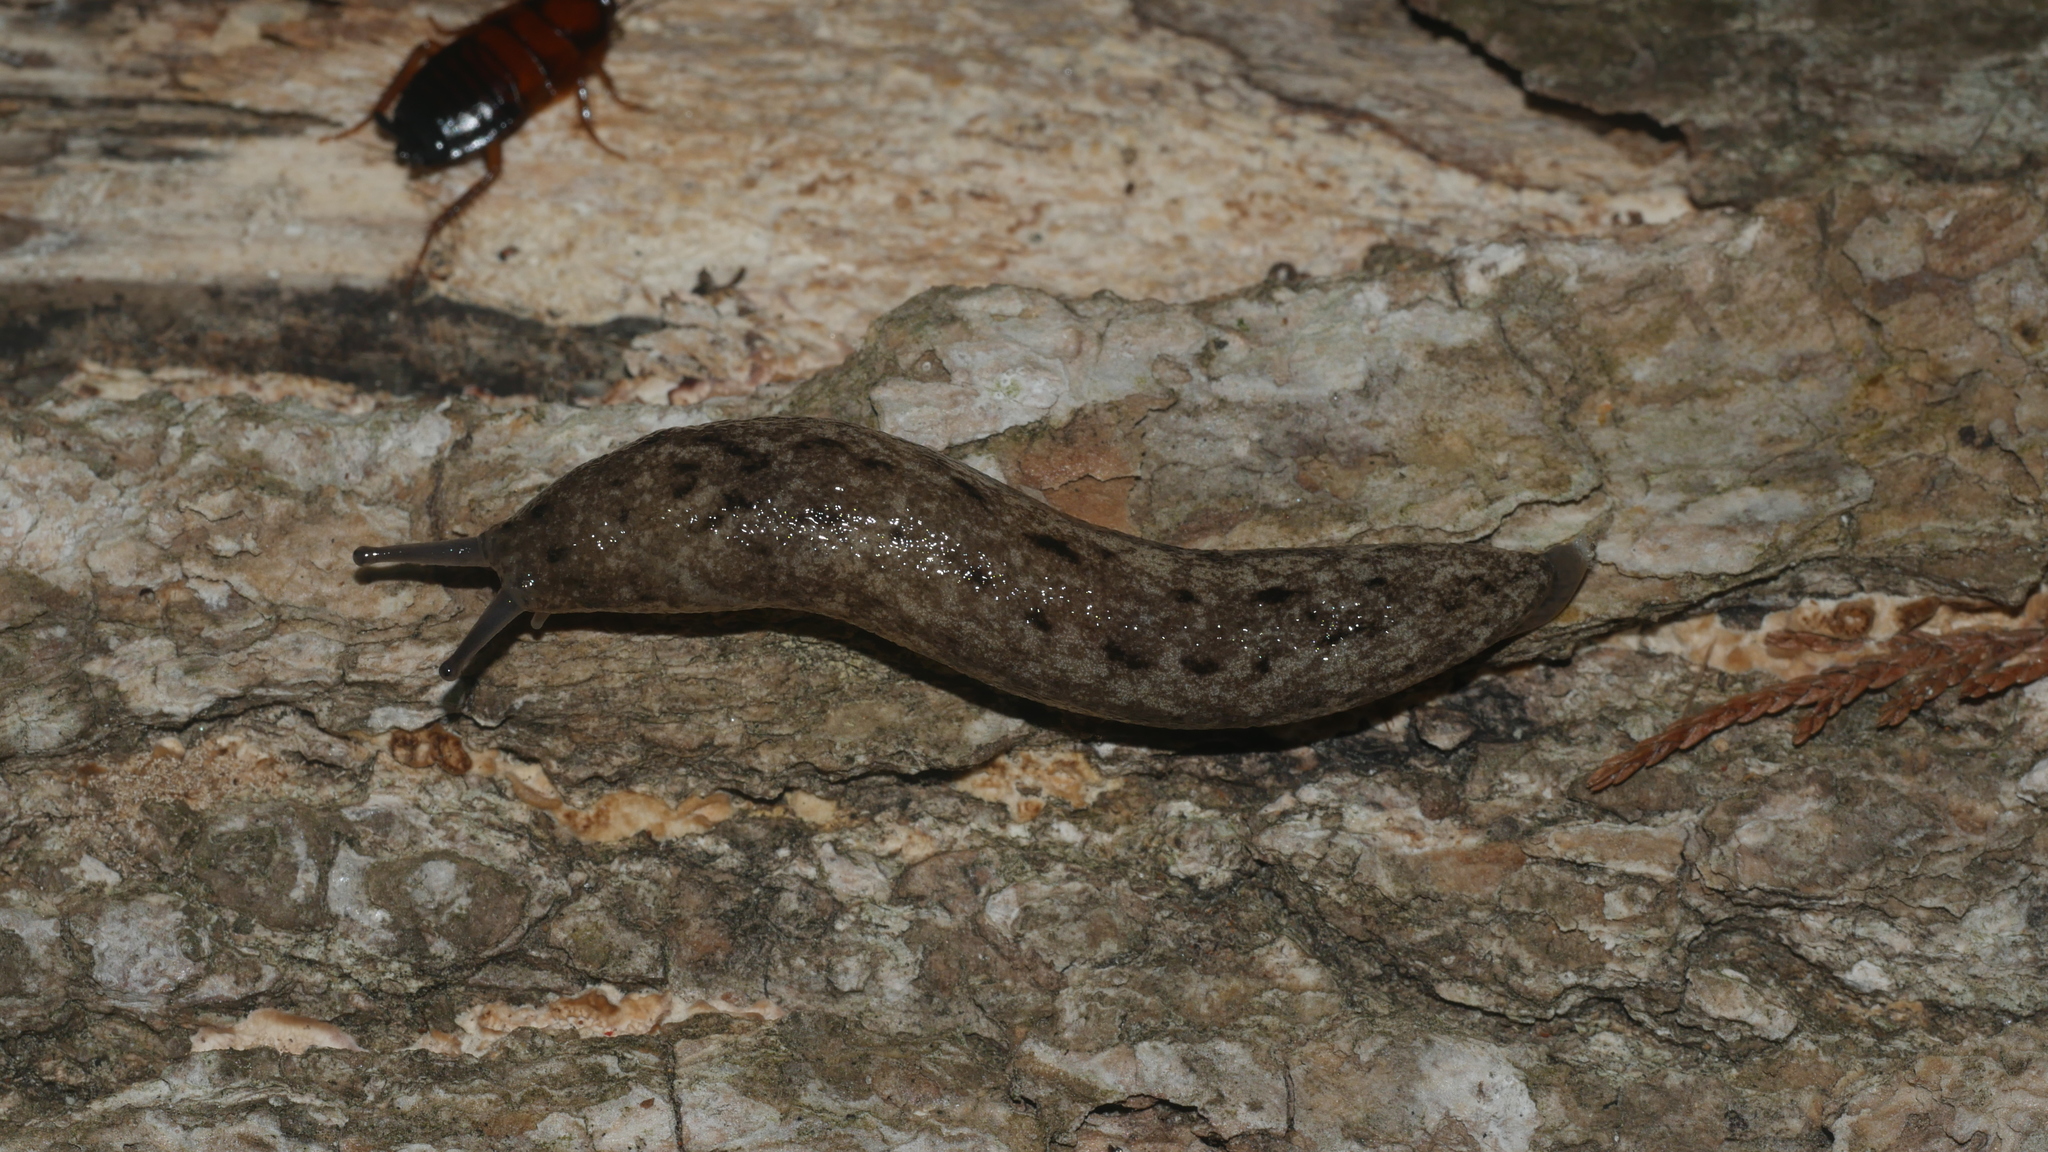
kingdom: Animalia
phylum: Mollusca
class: Gastropoda
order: Stylommatophora
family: Philomycidae
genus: Philomycus
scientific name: Philomycus carolinianus
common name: Carolina mantleslug
